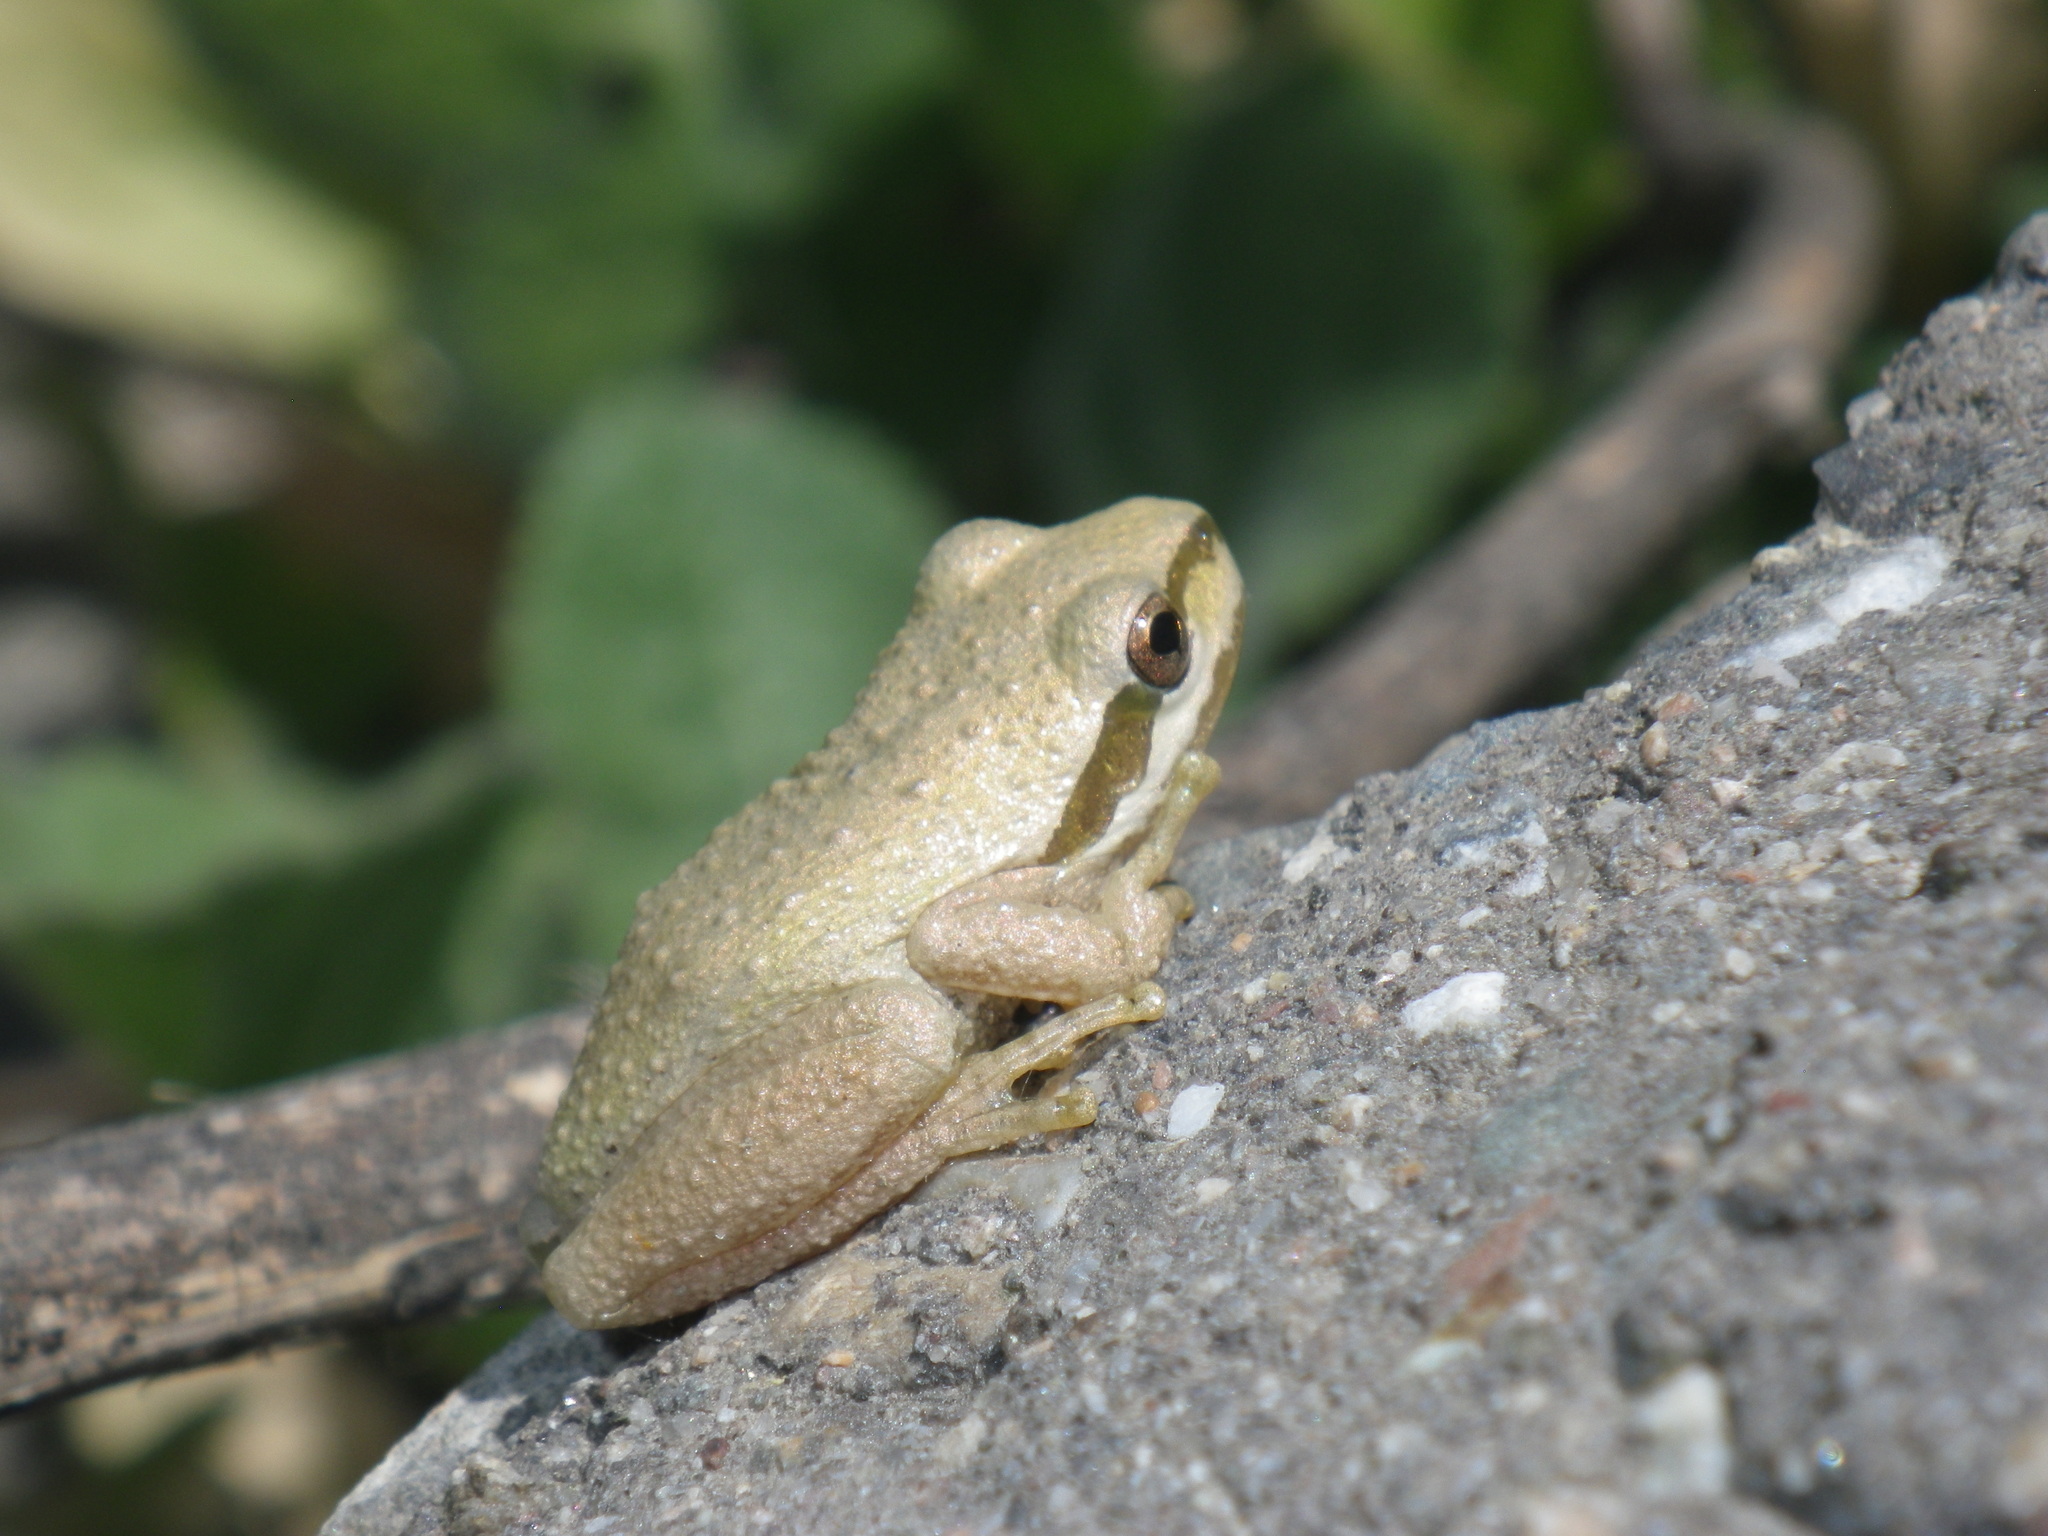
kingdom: Animalia
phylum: Chordata
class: Amphibia
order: Anura
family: Hylidae
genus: Pseudacris
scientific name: Pseudacris regilla
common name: Pacific chorus frog
